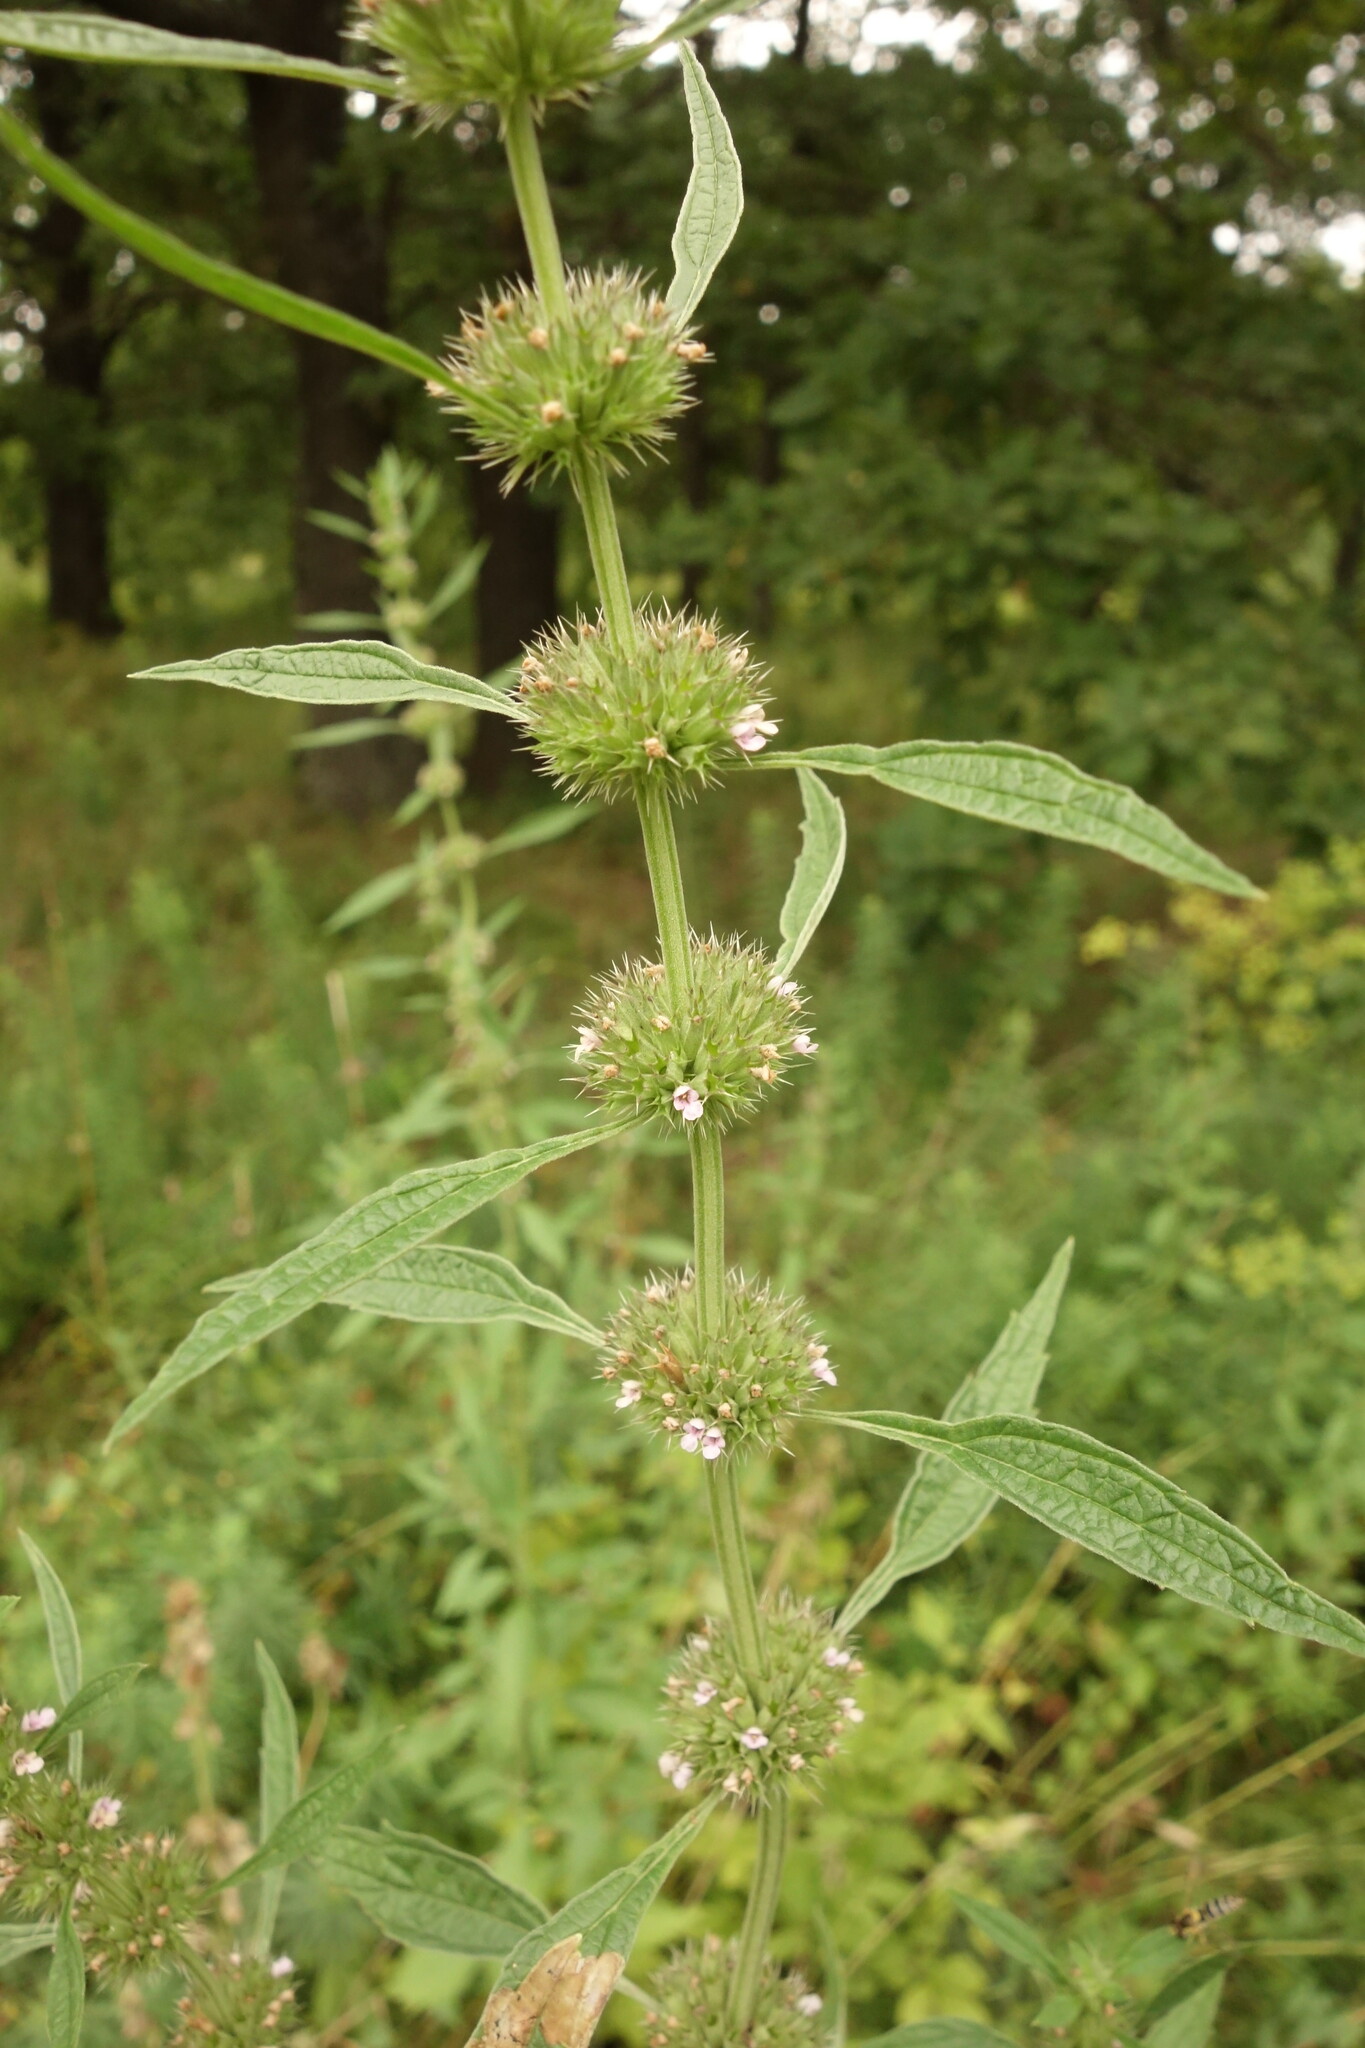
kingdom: Plantae
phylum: Tracheophyta
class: Magnoliopsida
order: Lamiales
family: Lamiaceae
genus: Chaiturus
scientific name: Chaiturus marrubiastrum
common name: Lion's tail
